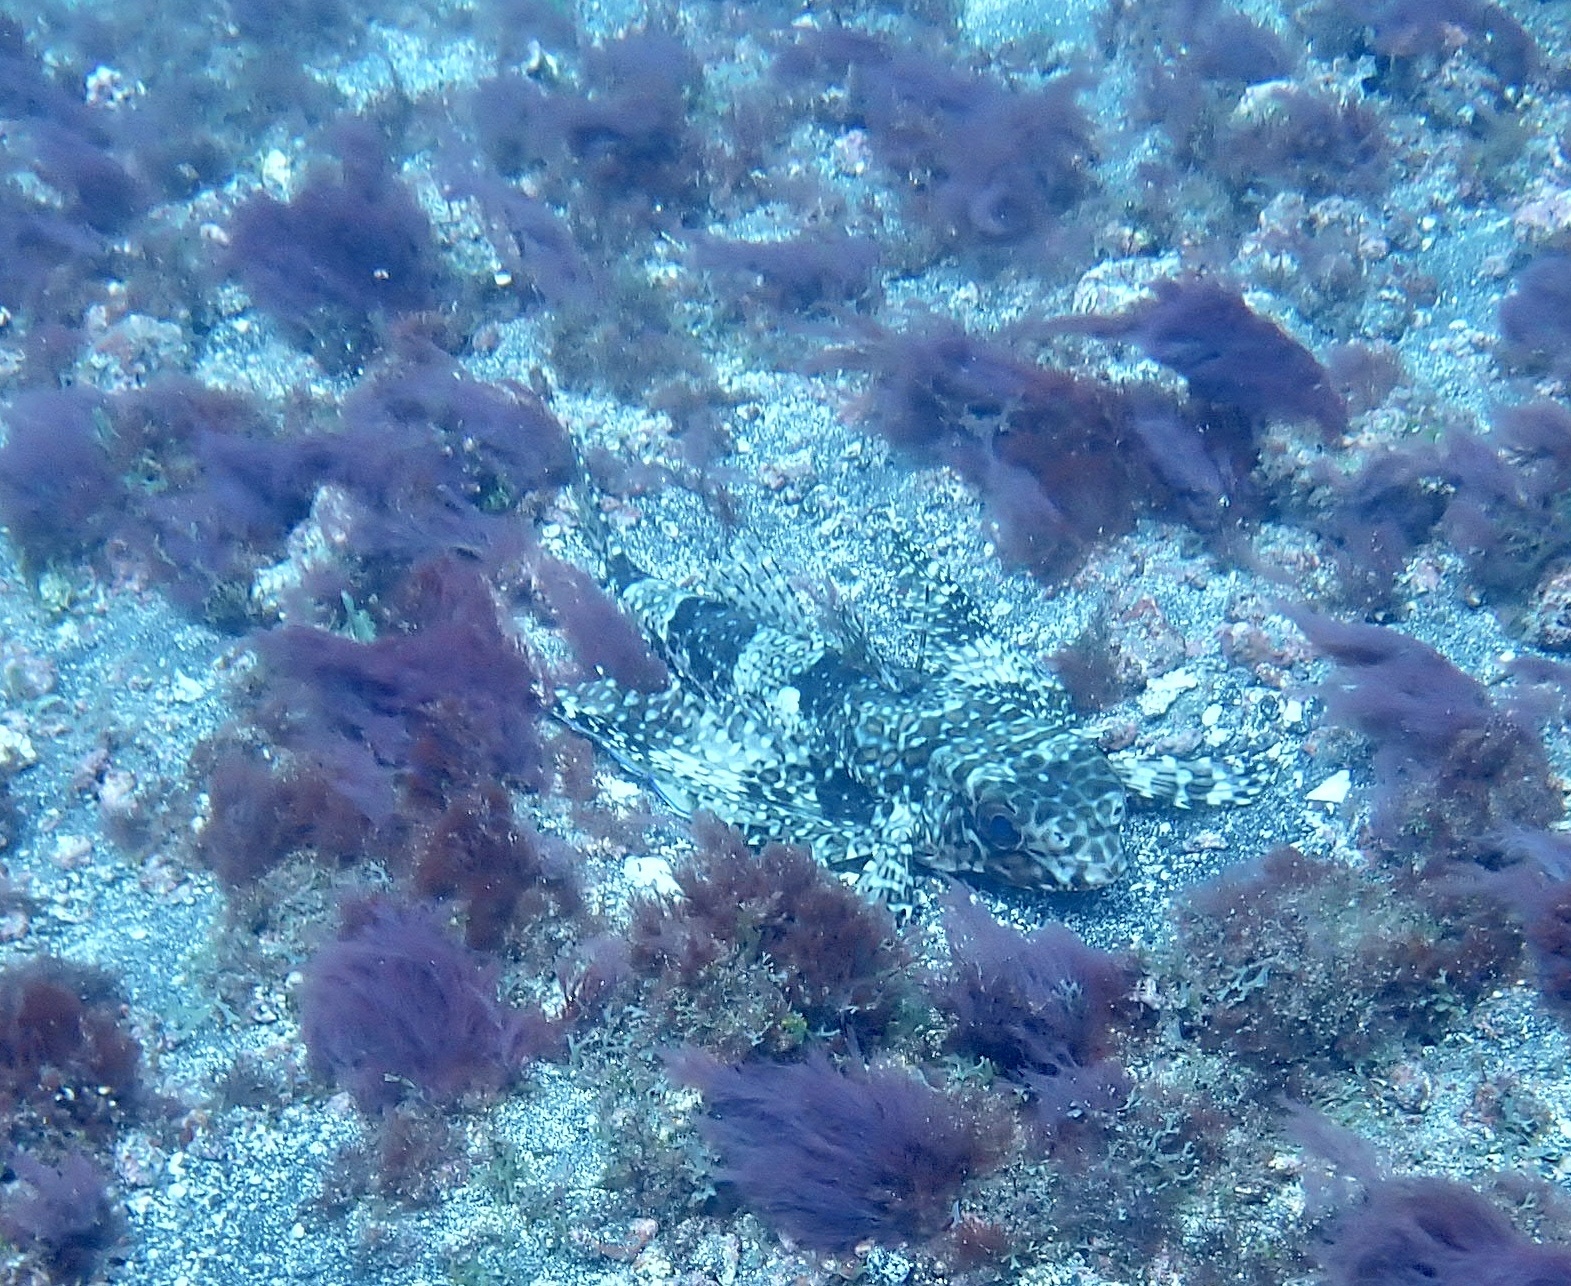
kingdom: Animalia
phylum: Chordata
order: Scorpaeniformes
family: Dactylopteridae
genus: Dactylopterus
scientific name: Dactylopterus volitans
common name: Flying gurnard
